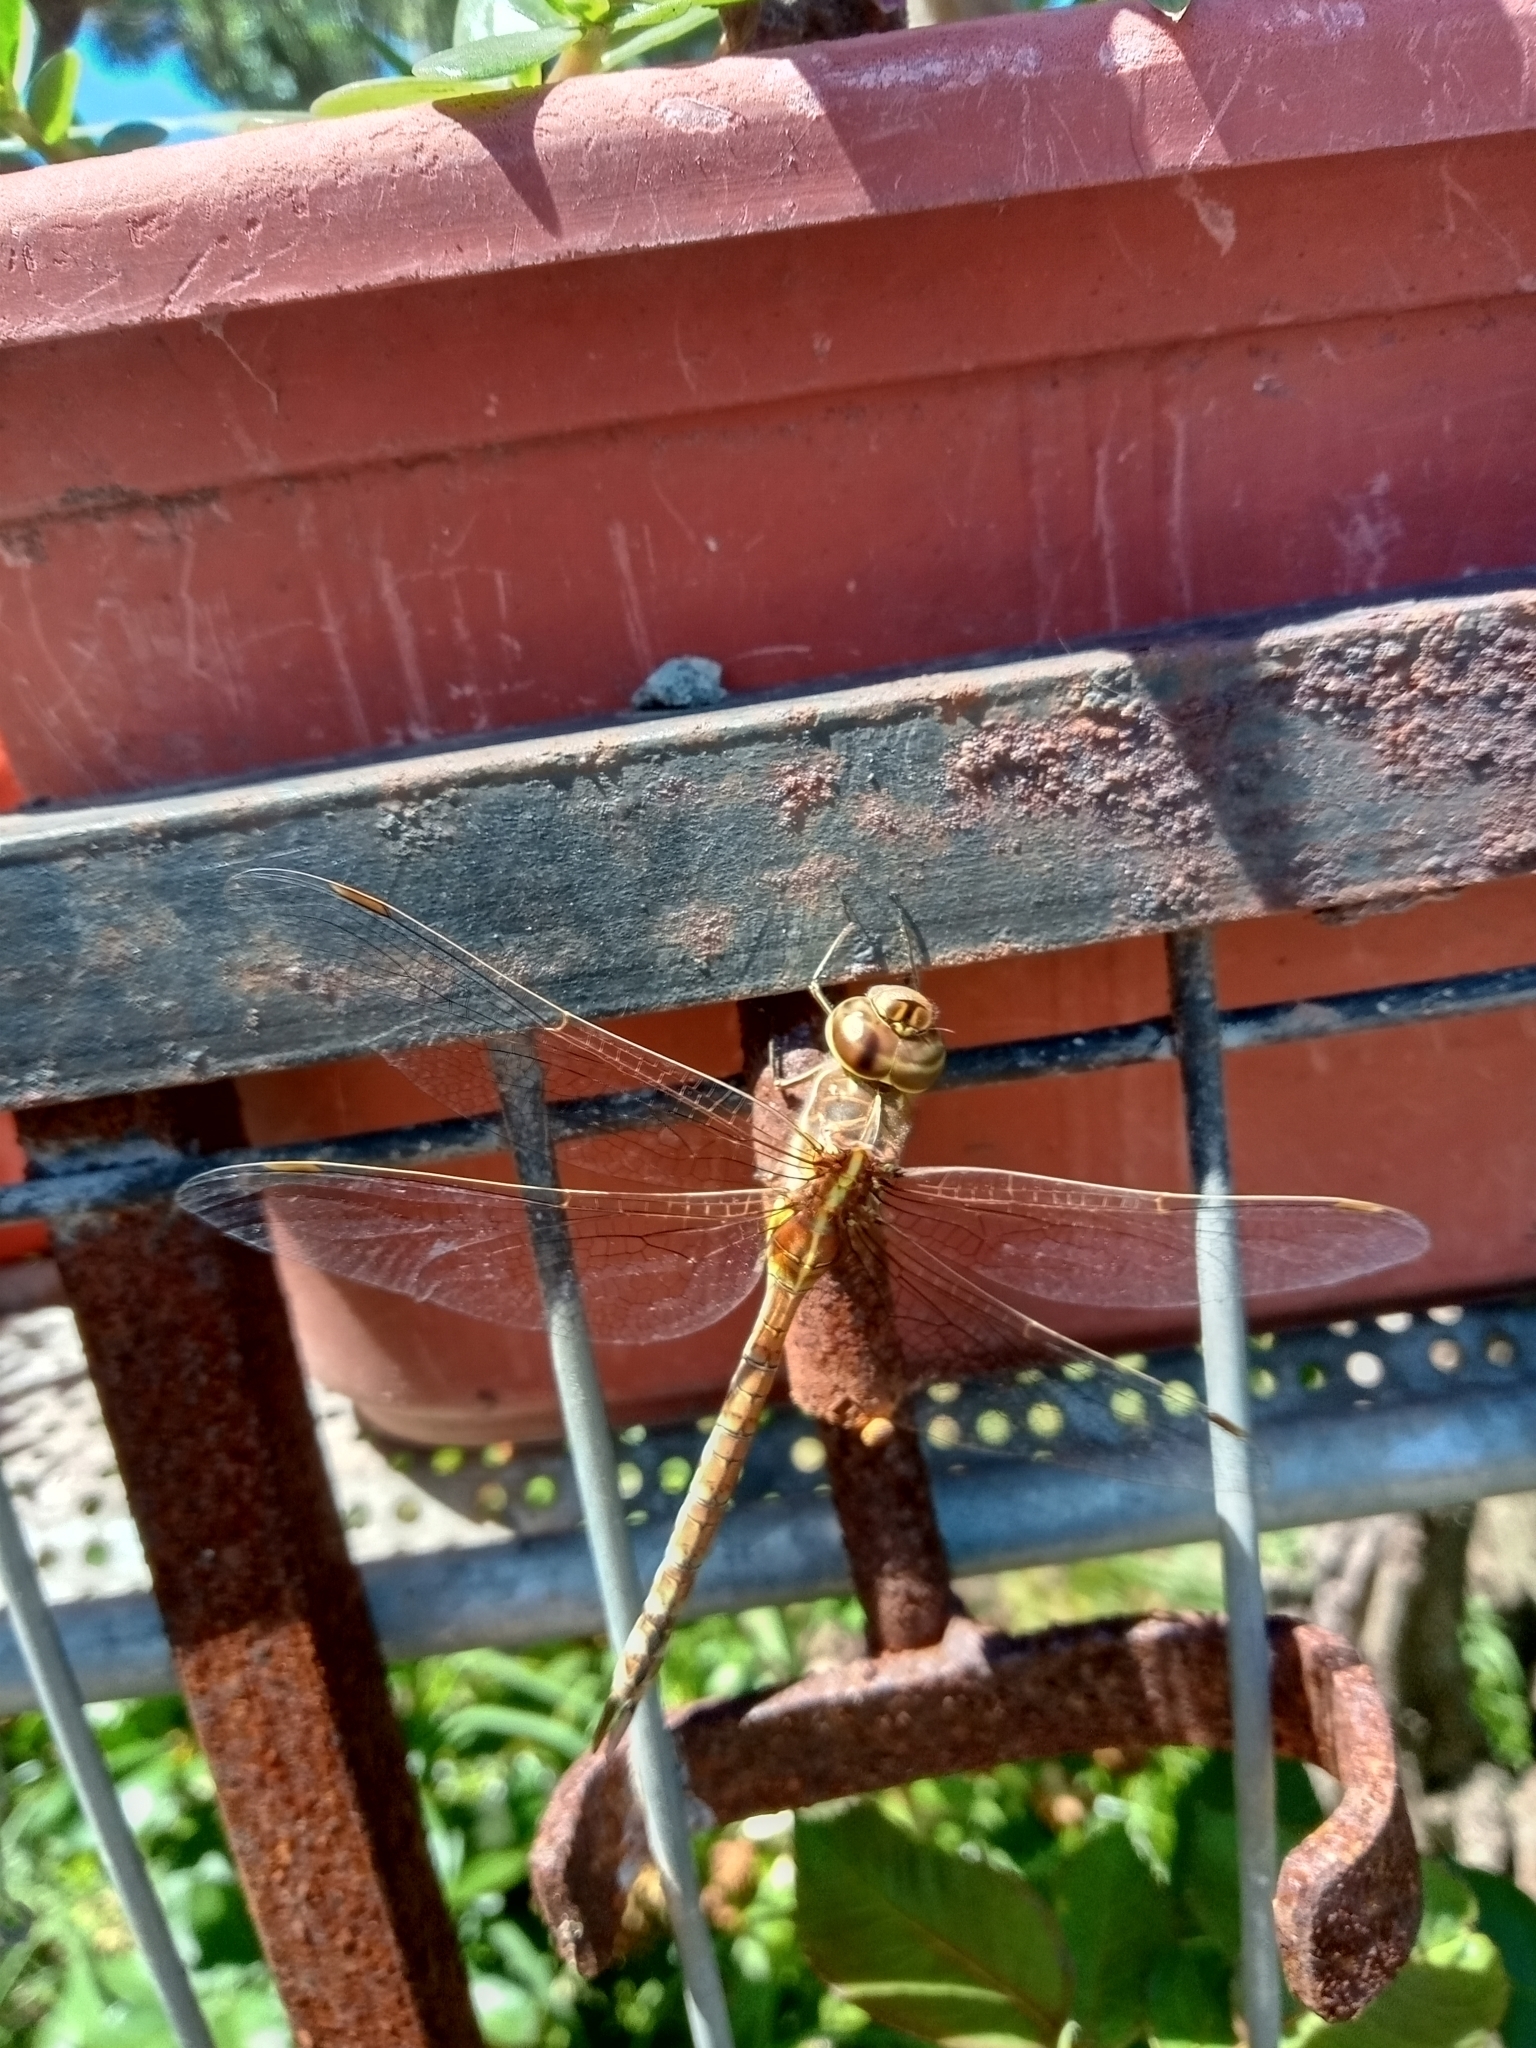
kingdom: Animalia
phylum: Arthropoda
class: Insecta
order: Odonata
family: Aeshnidae
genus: Rhionaeschna
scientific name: Rhionaeschna bonariensis
